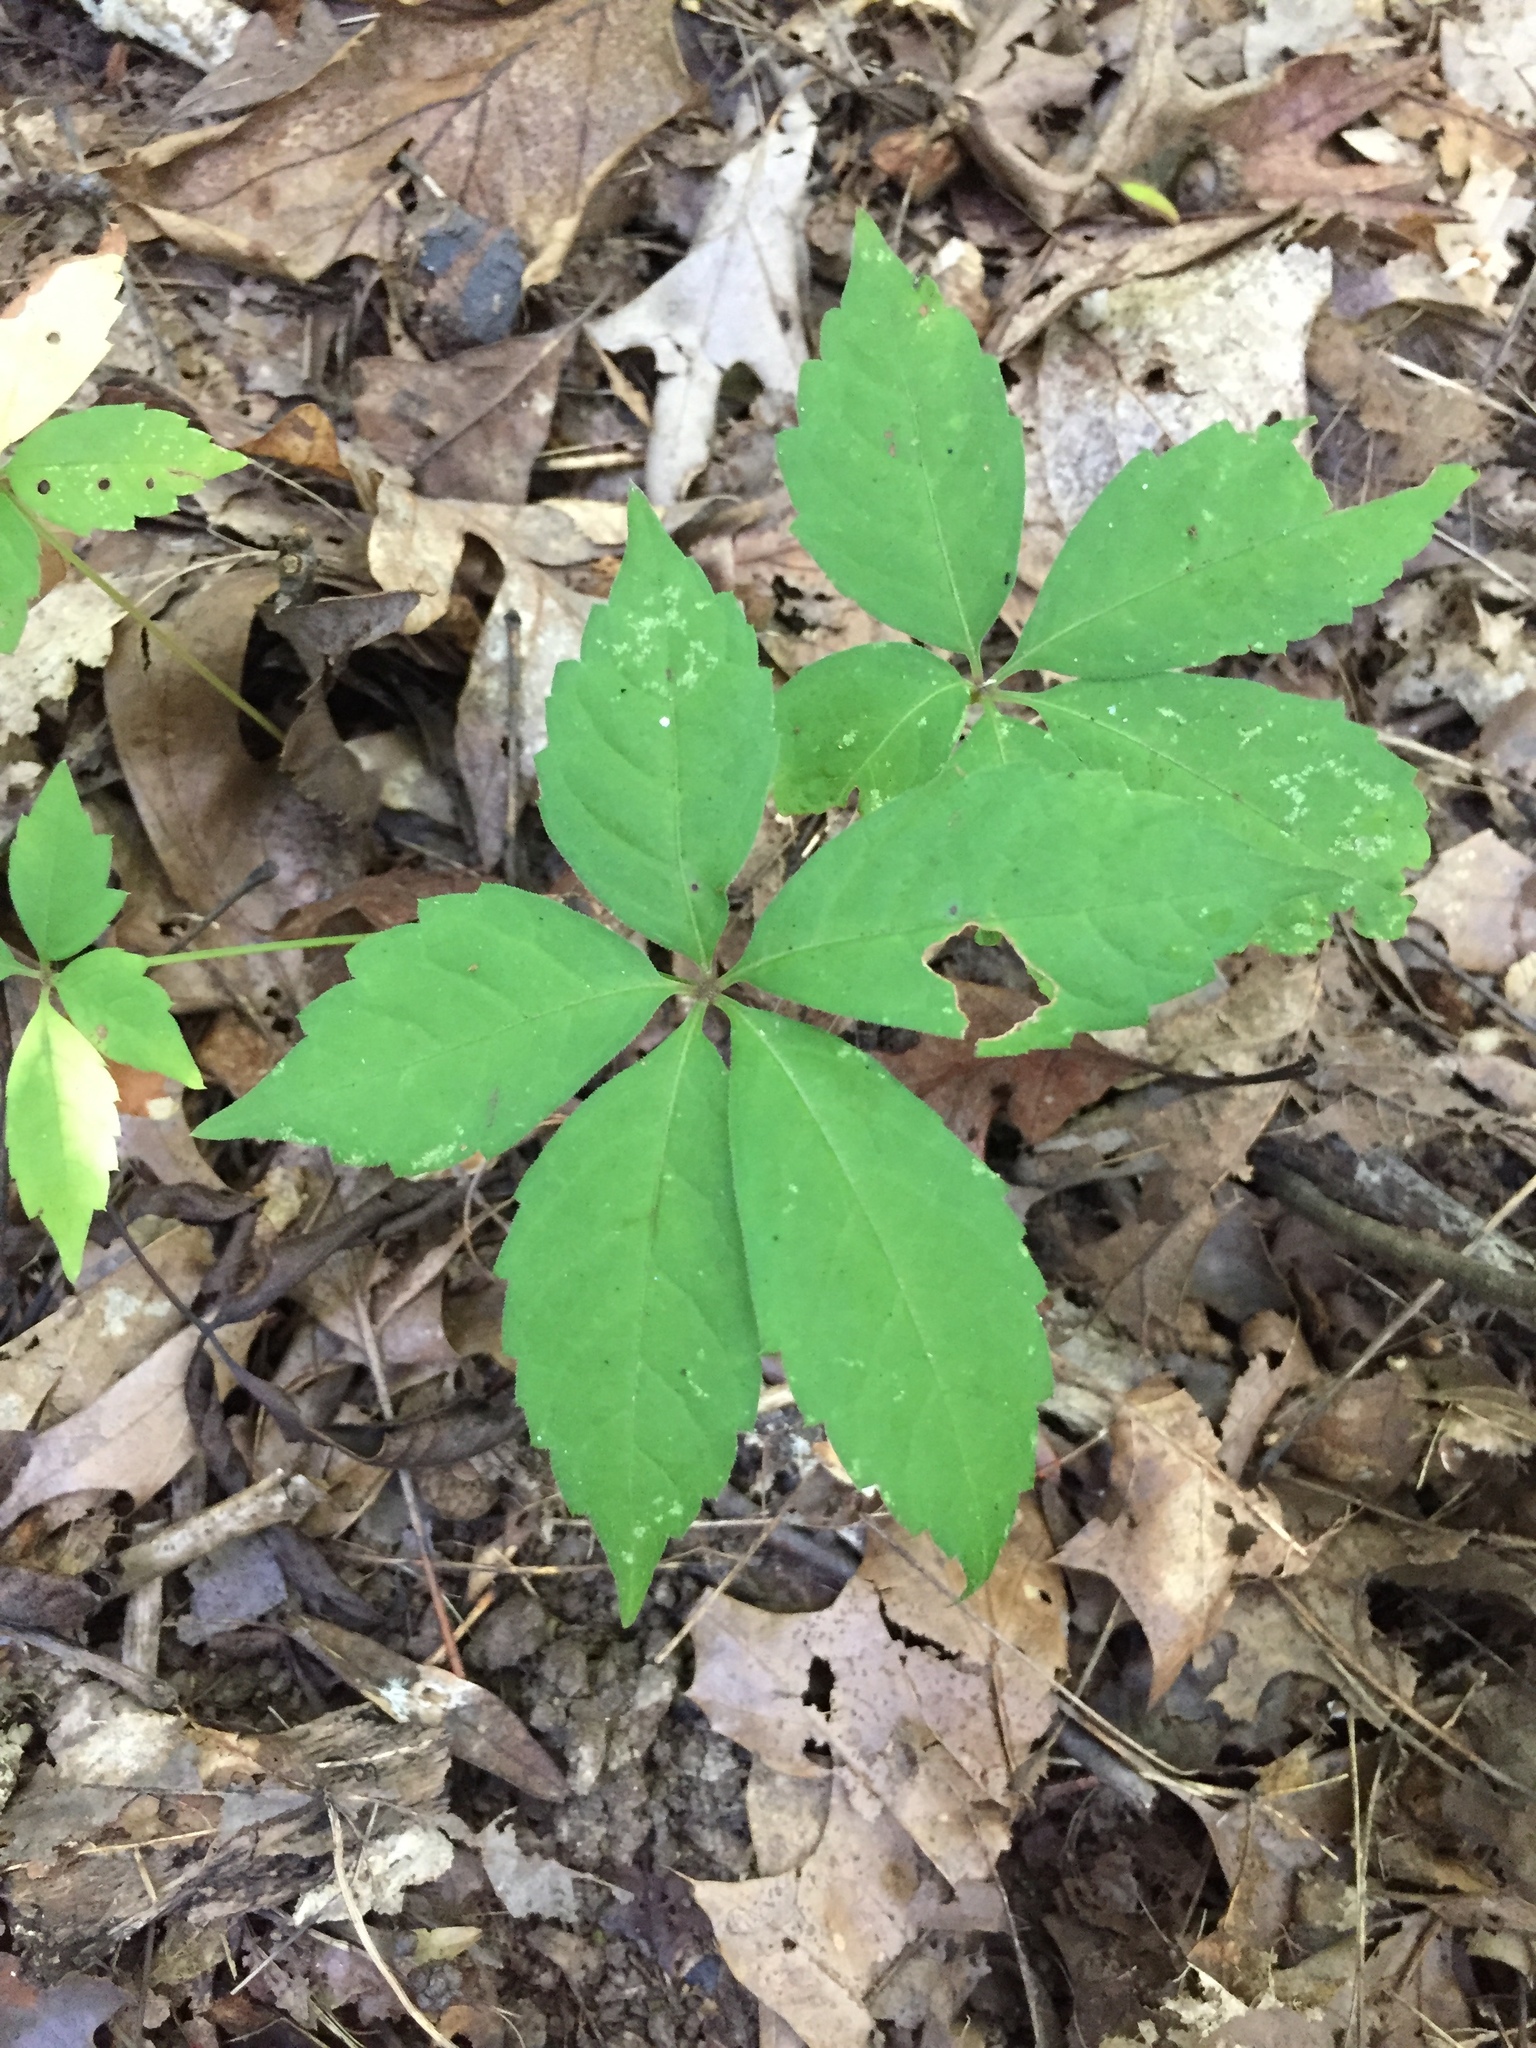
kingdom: Plantae
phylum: Tracheophyta
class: Magnoliopsida
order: Vitales
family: Vitaceae
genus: Parthenocissus
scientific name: Parthenocissus quinquefolia
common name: Virginia-creeper
